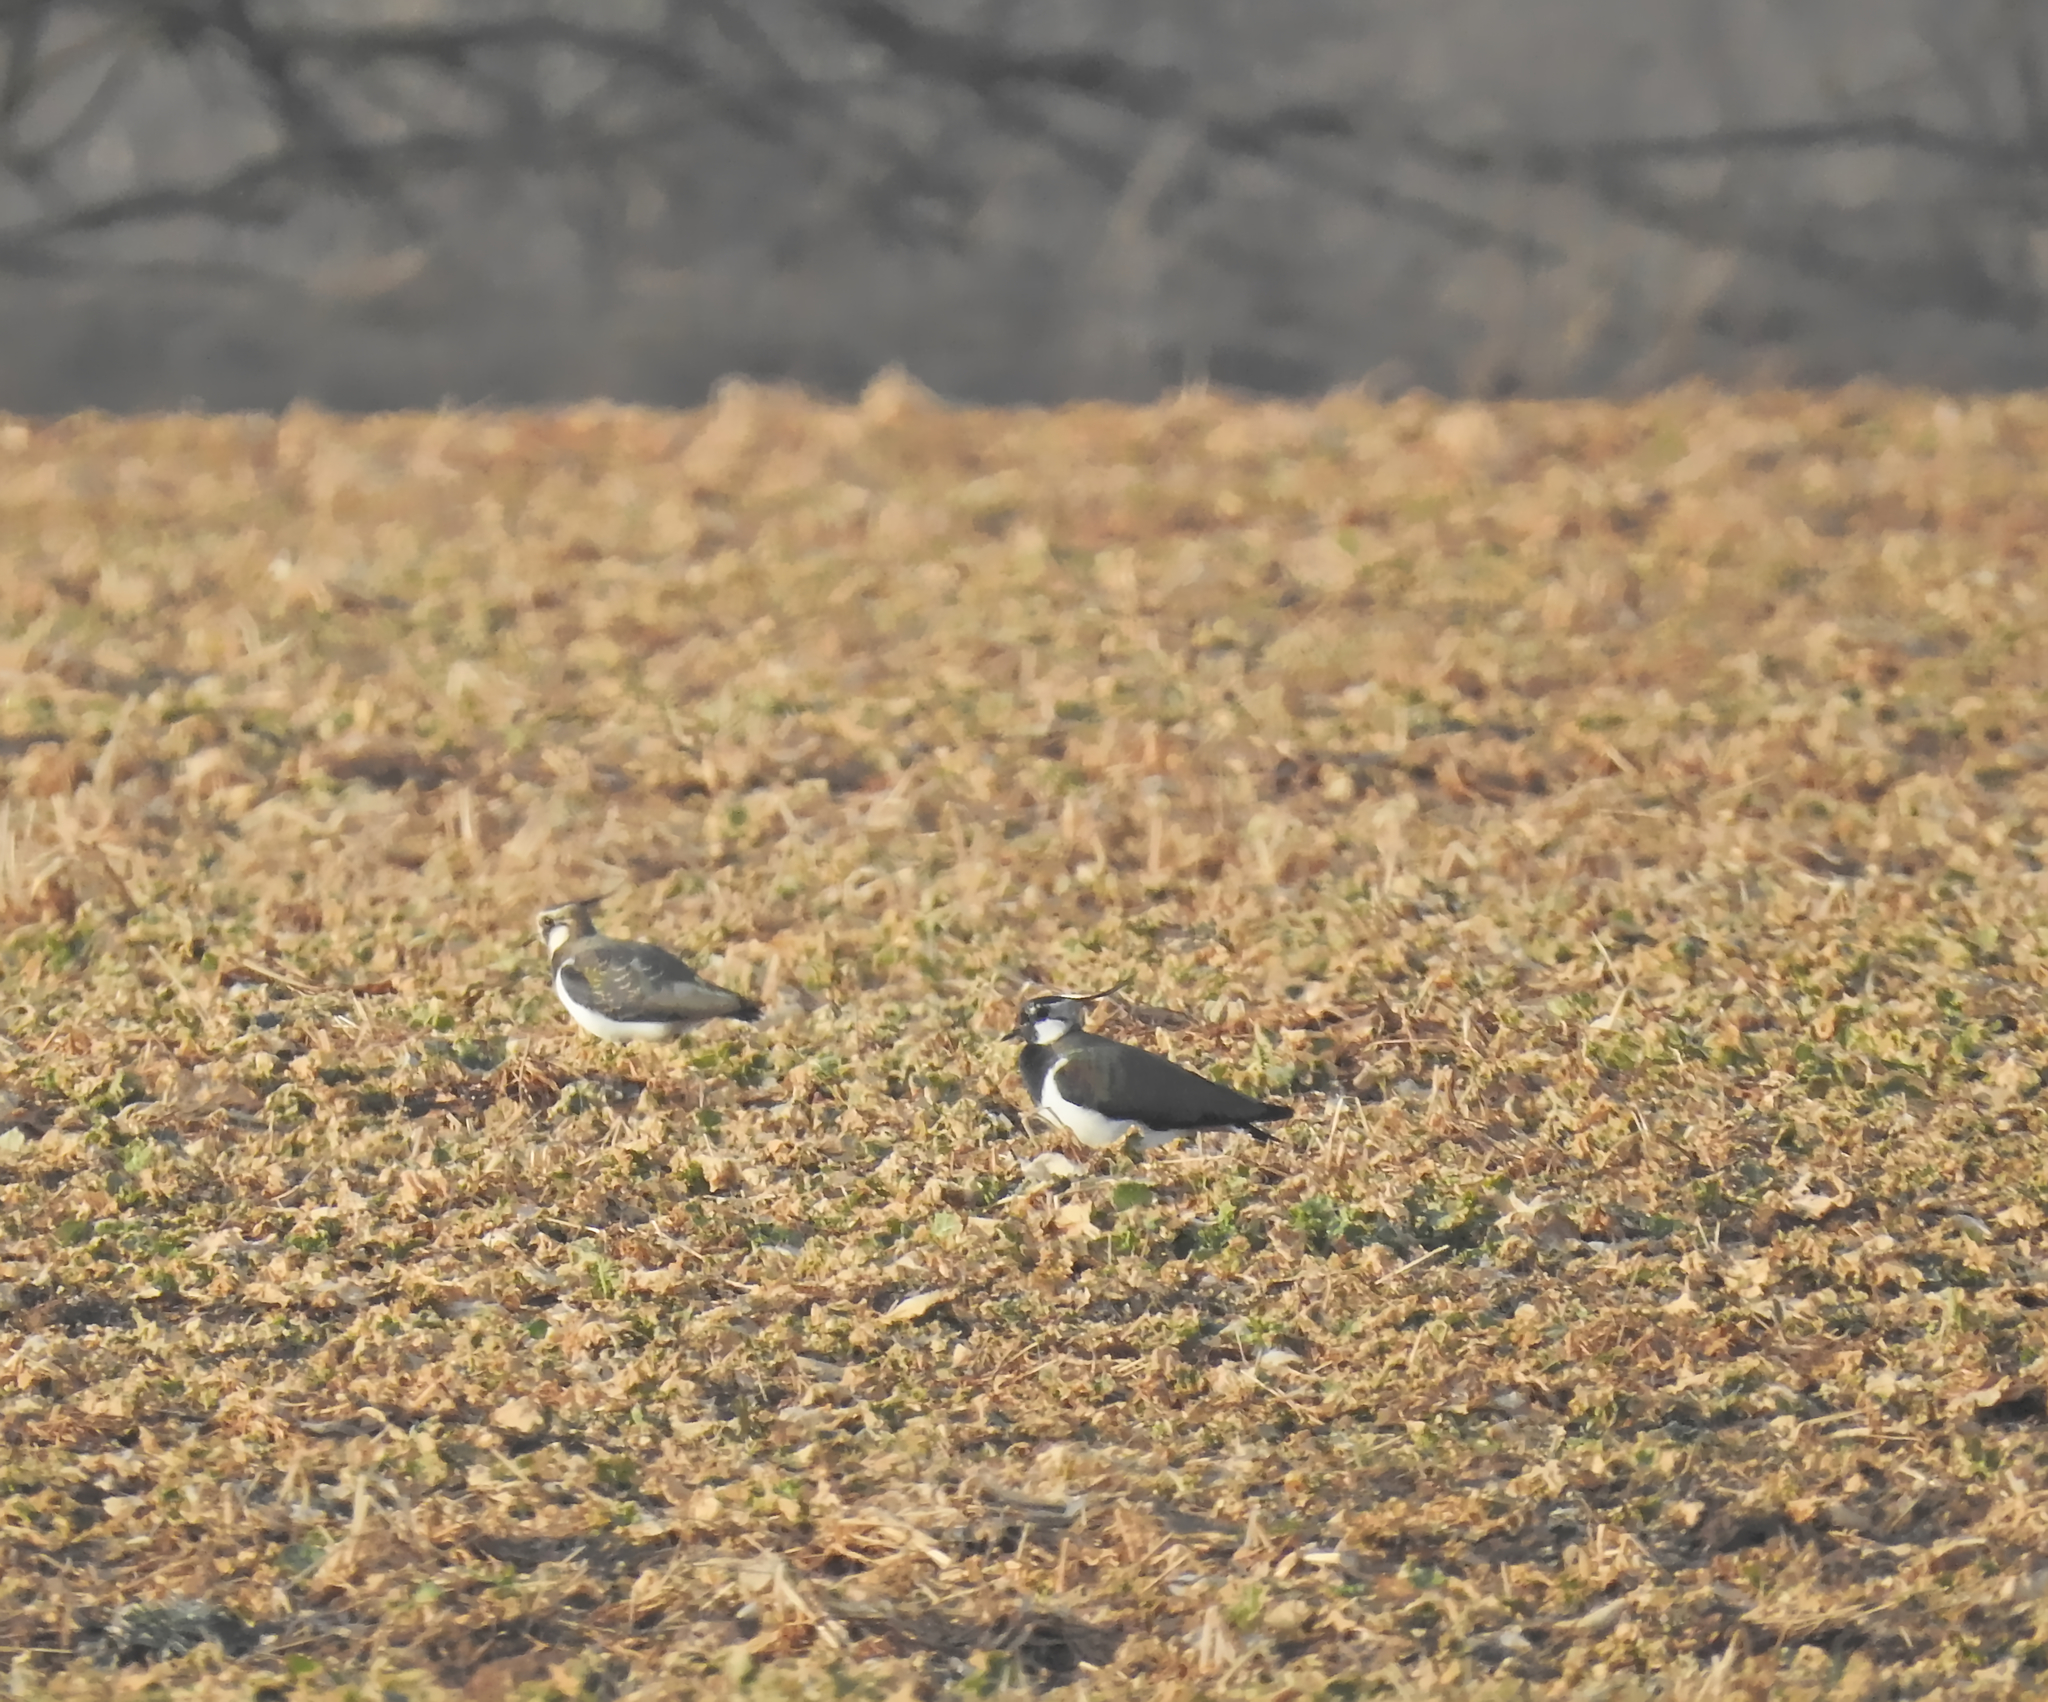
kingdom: Animalia
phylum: Chordata
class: Aves
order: Charadriiformes
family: Charadriidae
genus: Vanellus
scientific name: Vanellus vanellus
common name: Northern lapwing
